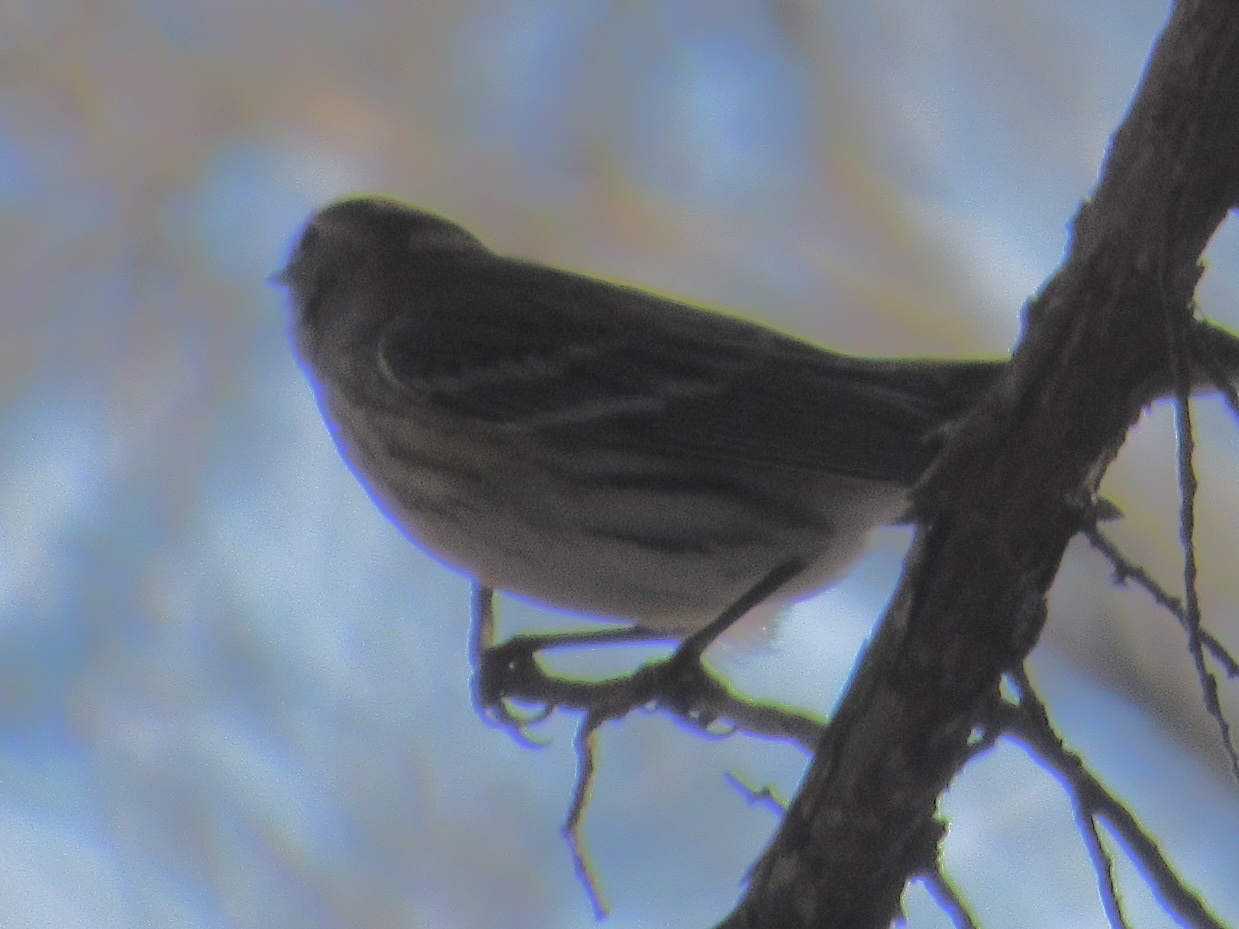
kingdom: Animalia
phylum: Chordata
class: Aves
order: Passeriformes
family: Parulidae
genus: Setophaga
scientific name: Setophaga coronata
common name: Myrtle warbler
